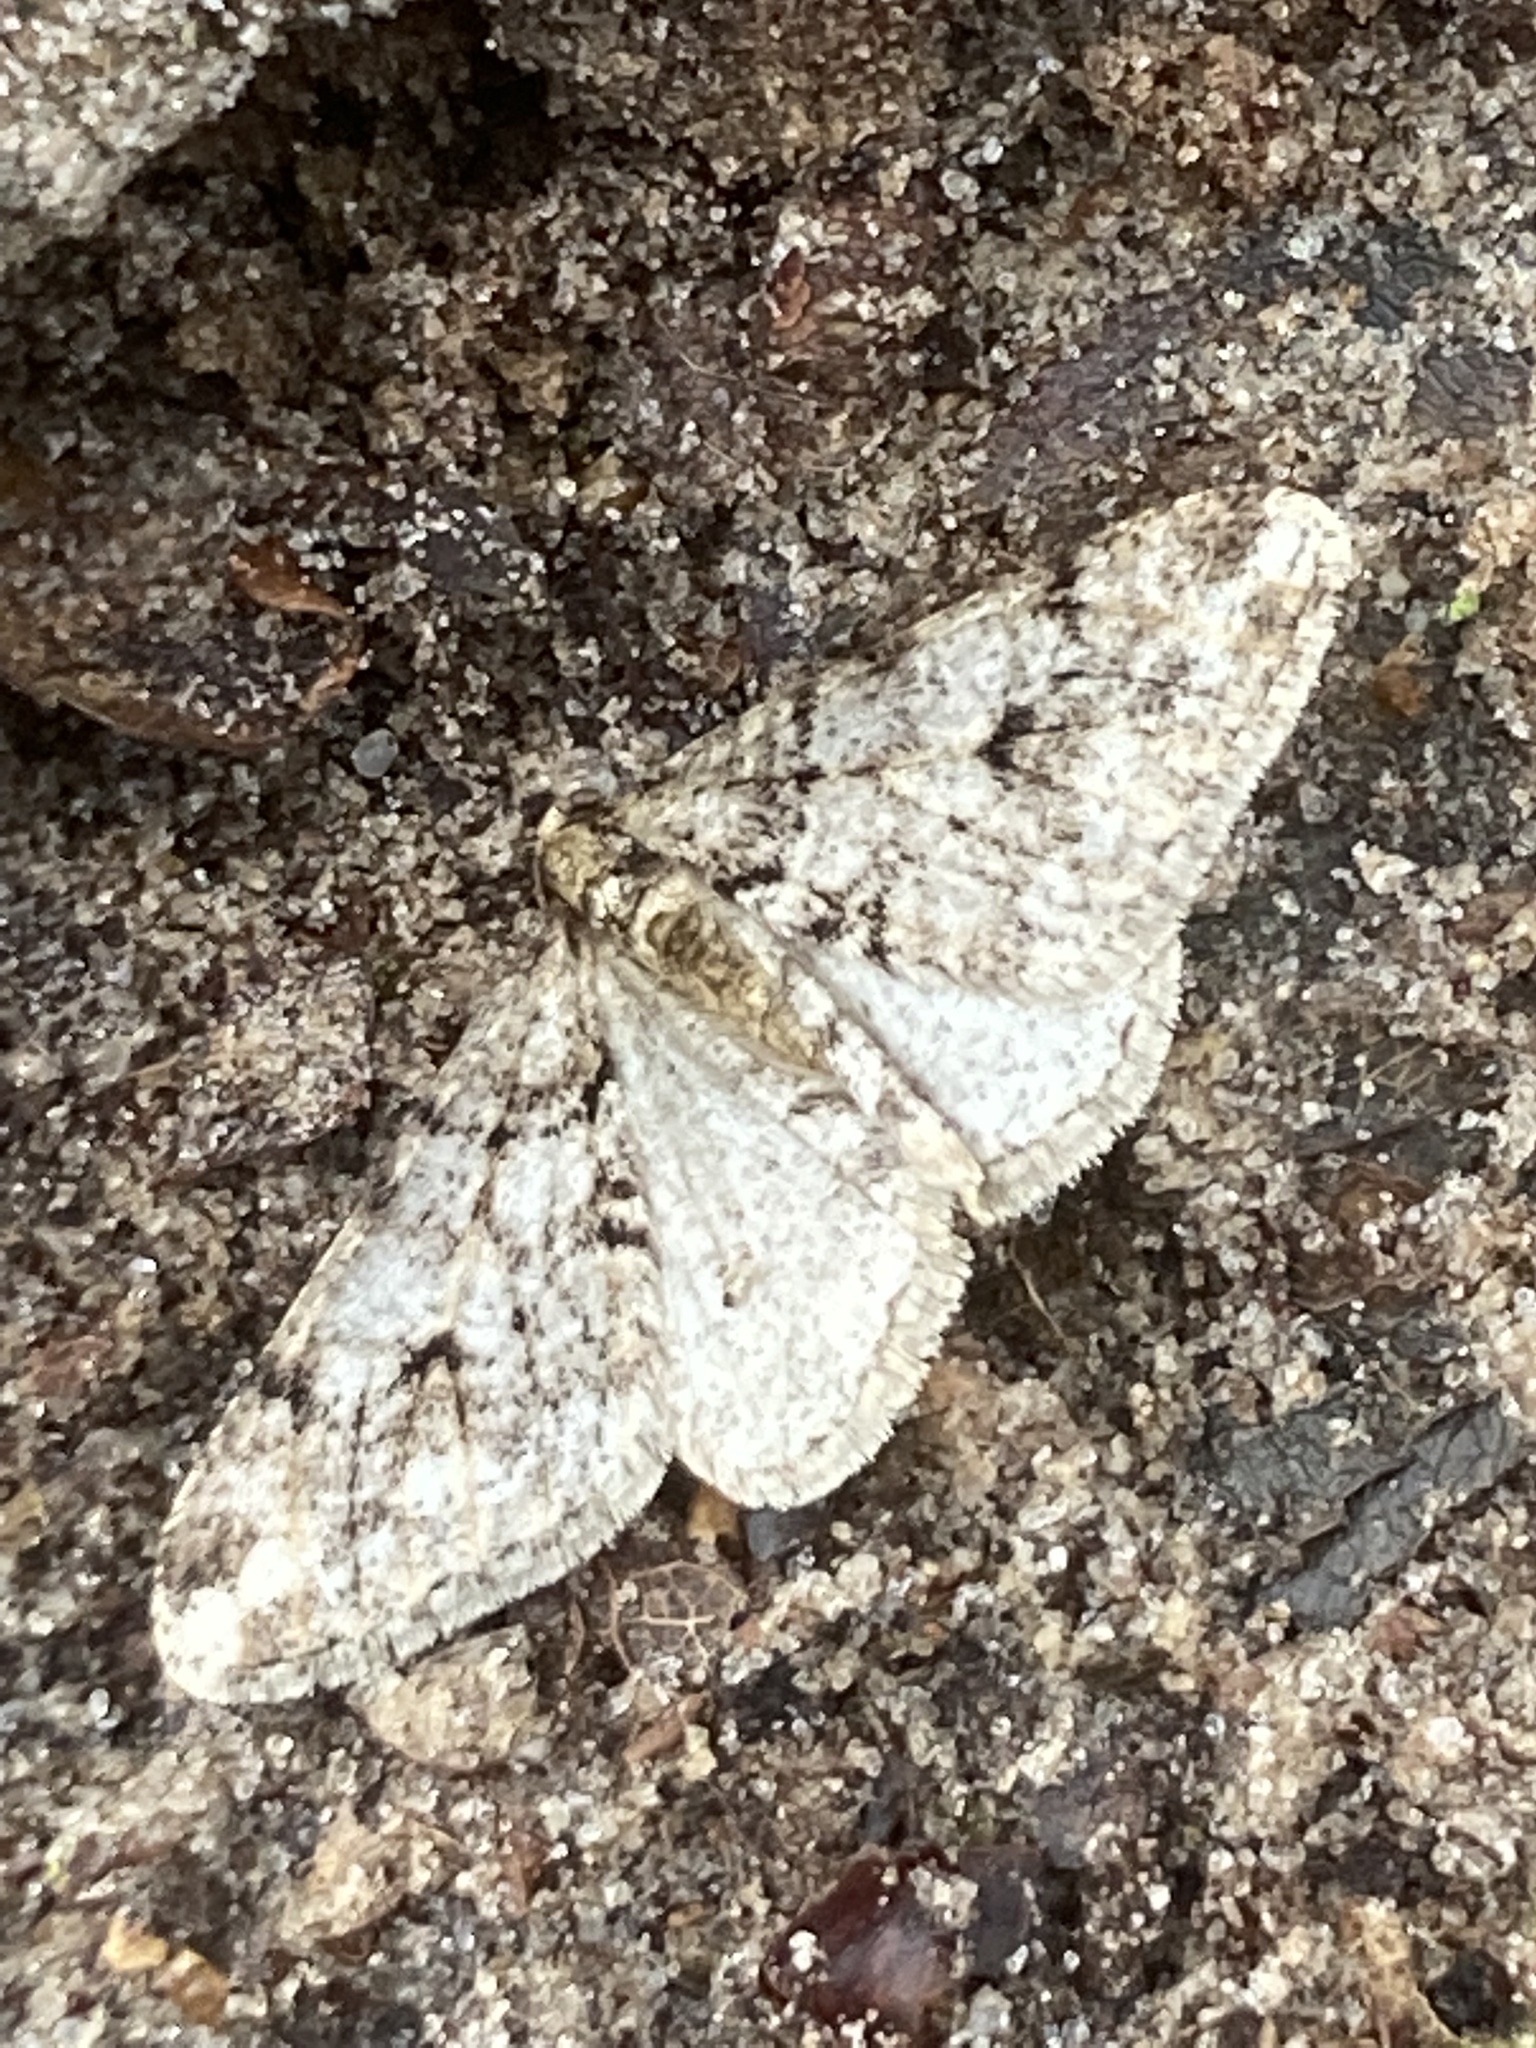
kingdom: Animalia
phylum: Arthropoda
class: Insecta
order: Lepidoptera
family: Geometridae
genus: Agriopis
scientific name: Agriopis leucophaearia
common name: Spring usher
